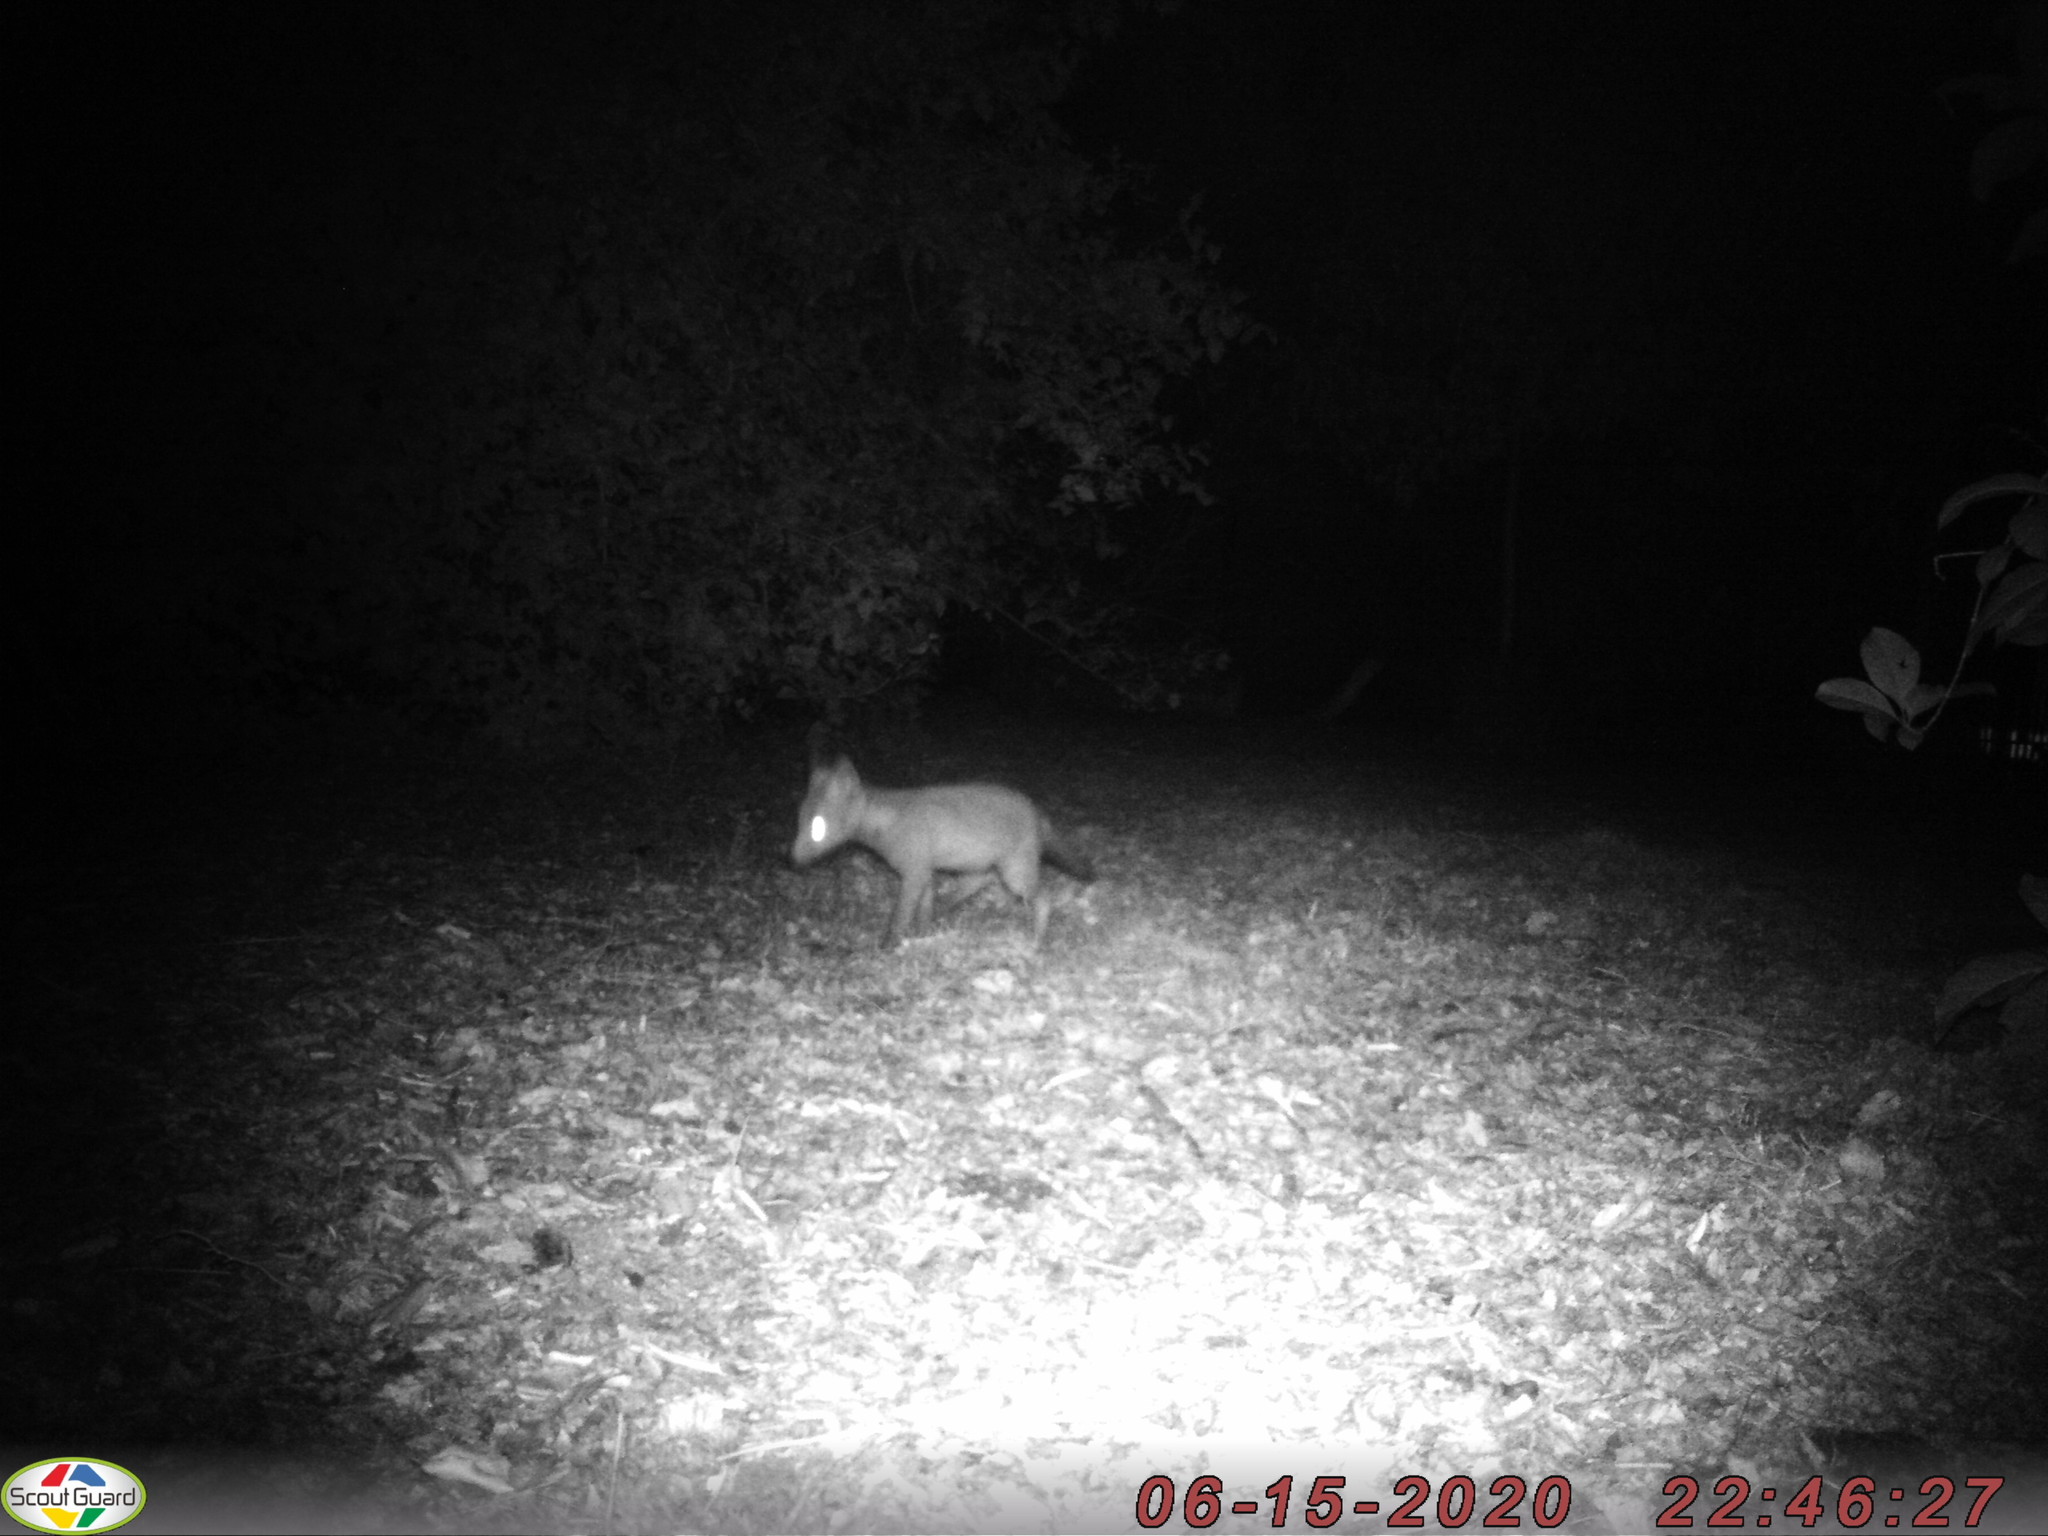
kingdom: Animalia
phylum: Chordata
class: Mammalia
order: Carnivora
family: Canidae
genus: Vulpes
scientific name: Vulpes vulpes
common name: Red fox
